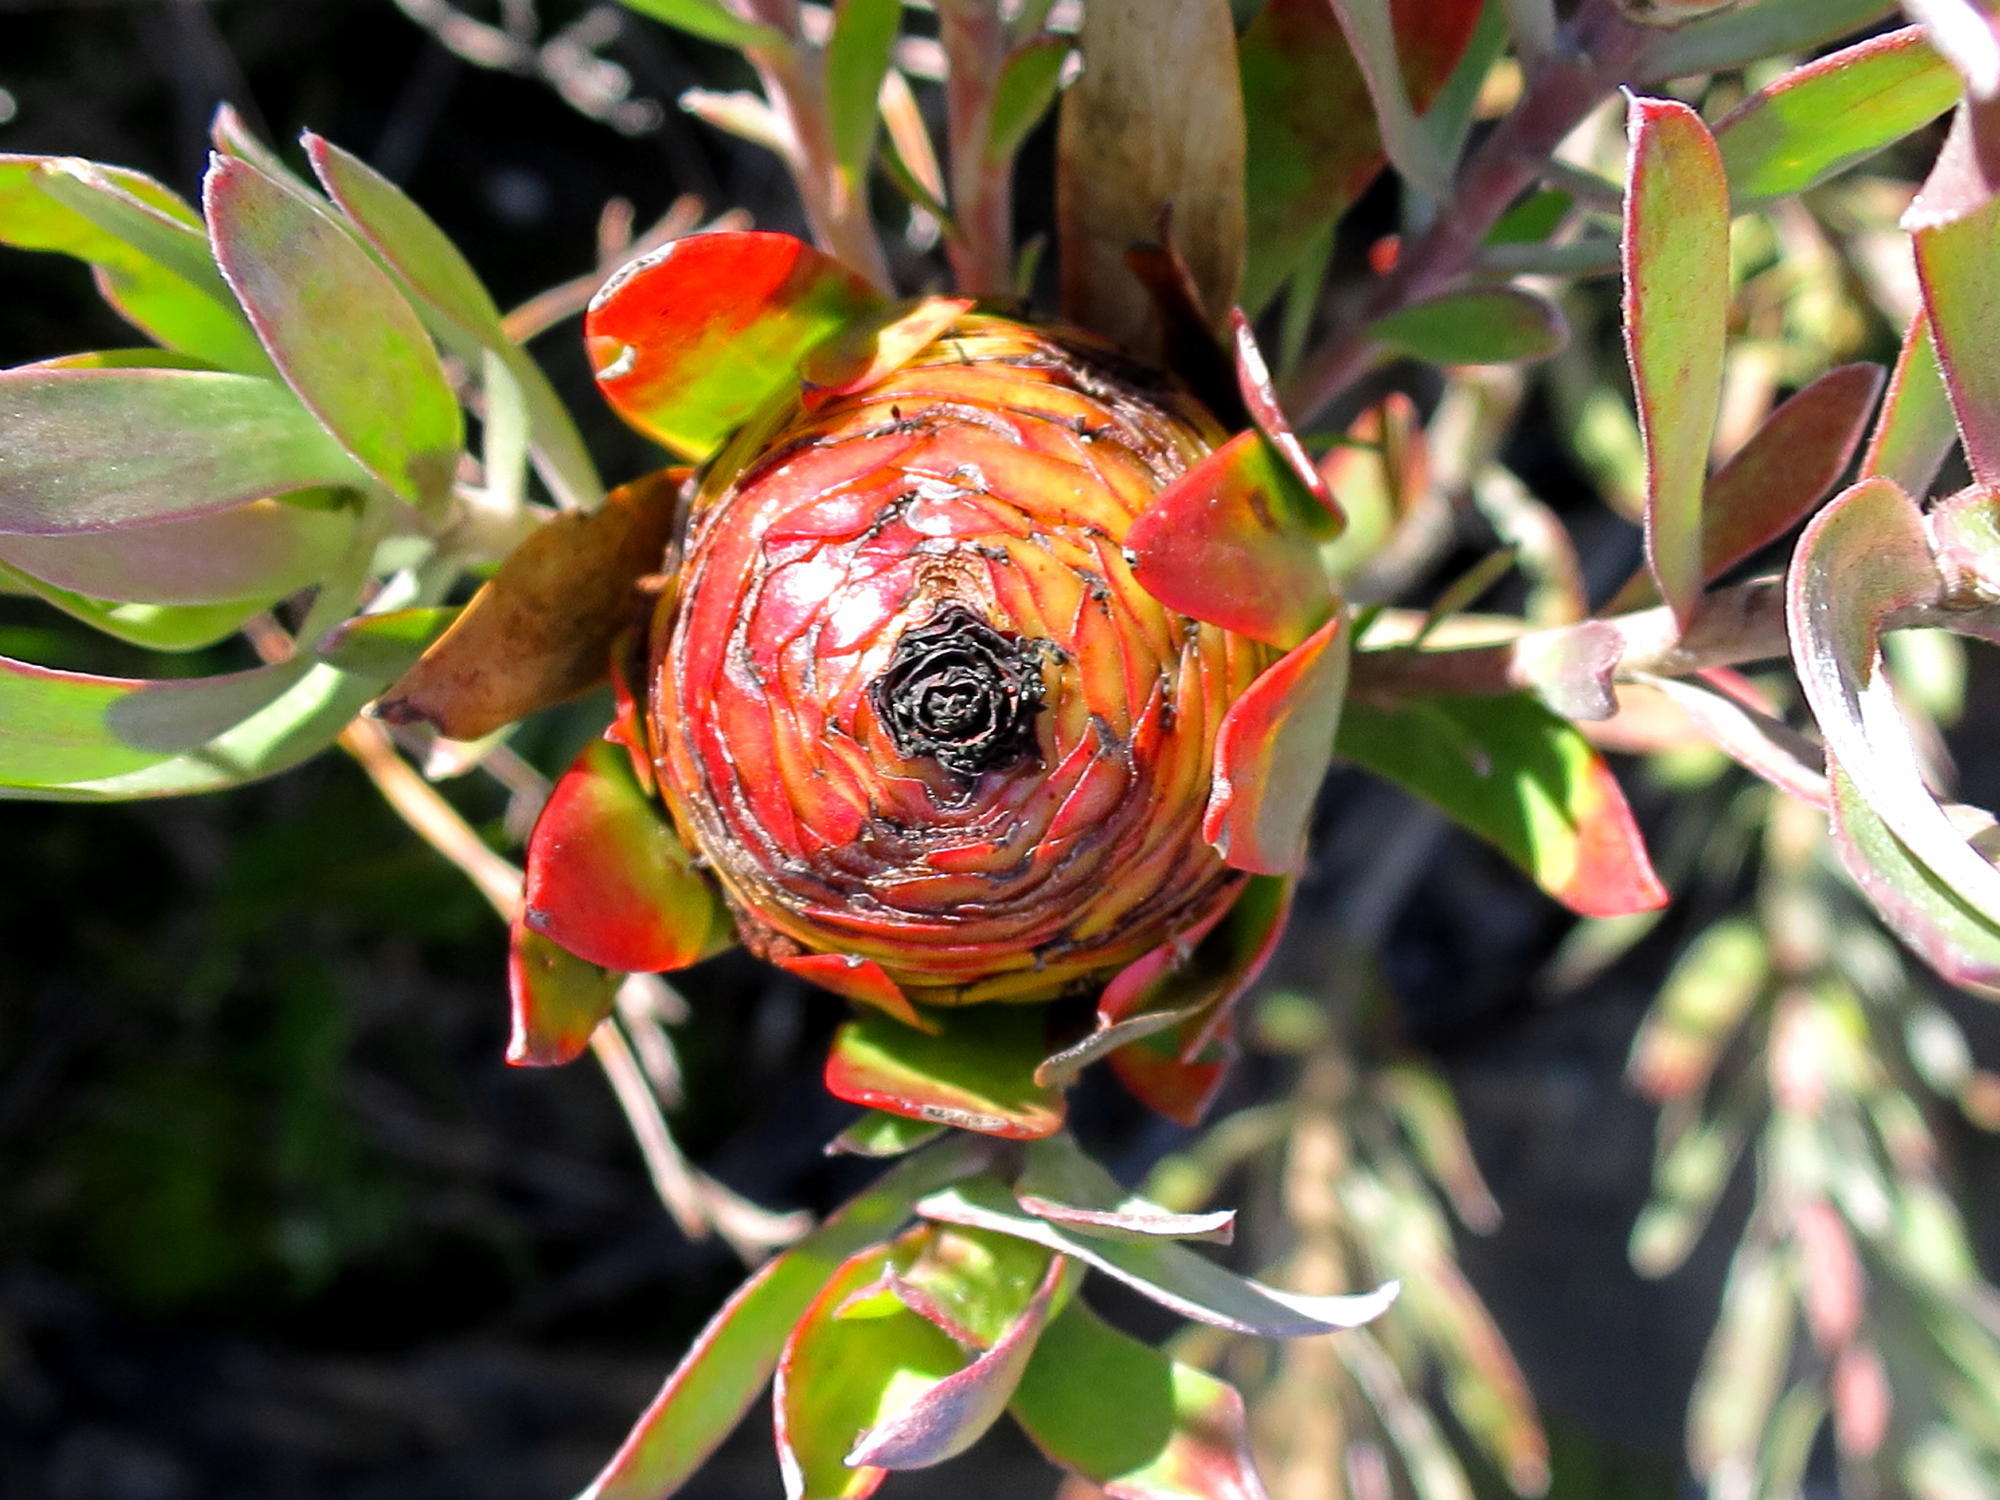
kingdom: Plantae
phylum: Tracheophyta
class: Magnoliopsida
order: Proteales
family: Proteaceae
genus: Leucadendron
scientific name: Leucadendron spissifolium
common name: Spear-leaf conebush
